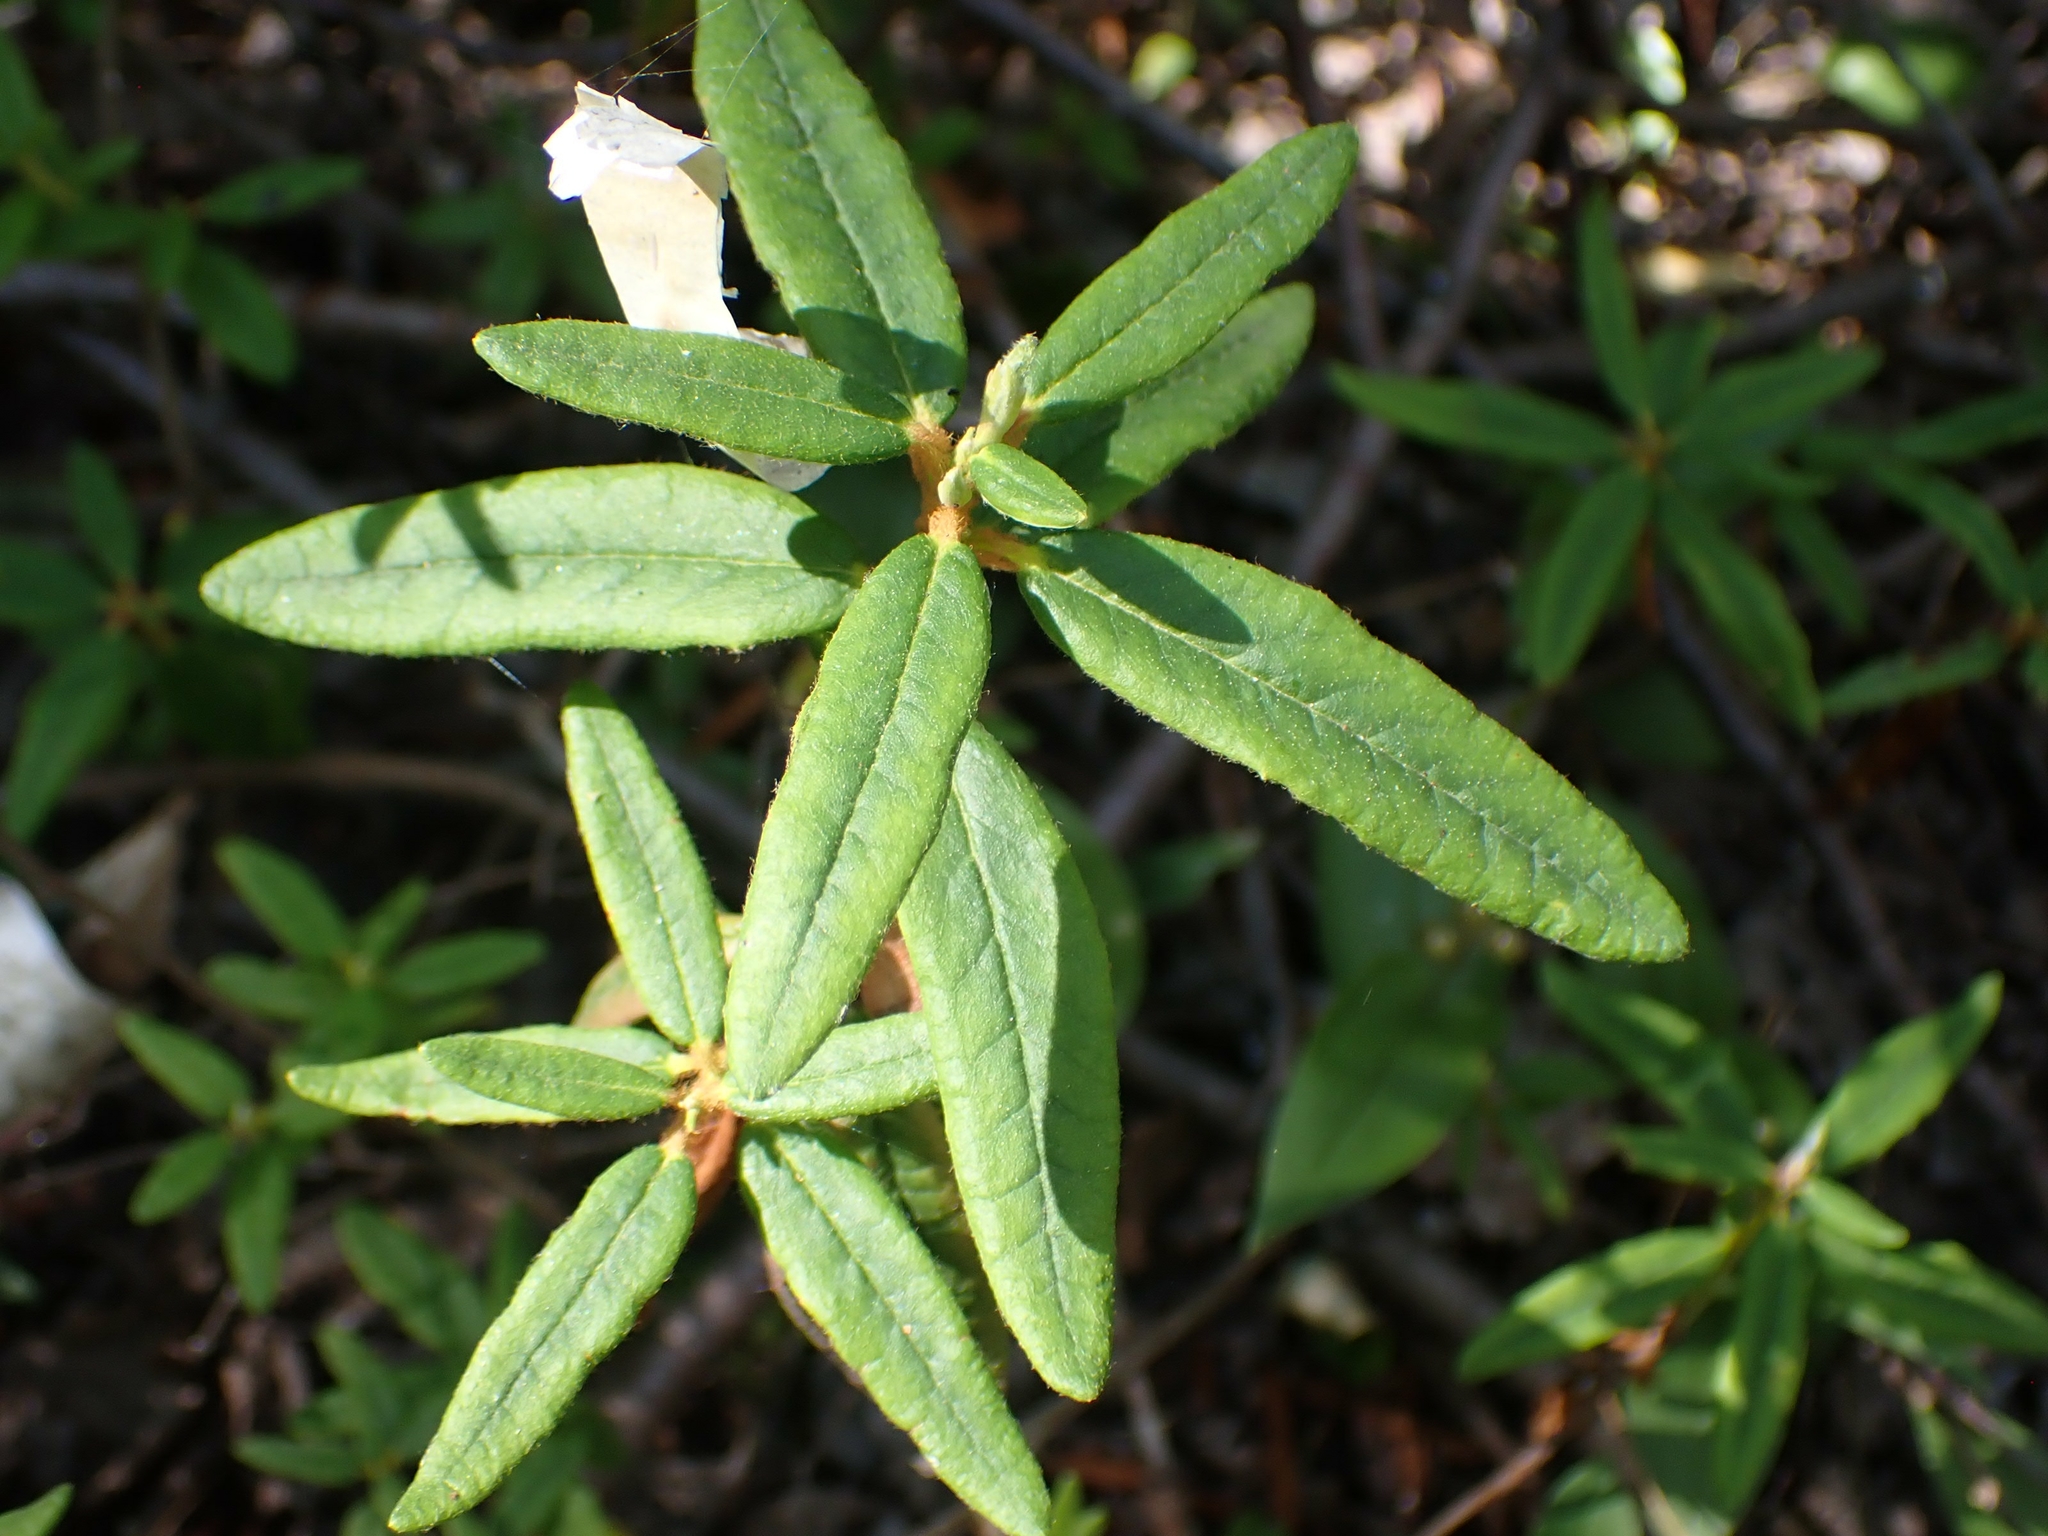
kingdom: Plantae
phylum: Tracheophyta
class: Magnoliopsida
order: Ericales
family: Ericaceae
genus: Rhododendron
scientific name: Rhododendron groenlandicum
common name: Bog labrador tea
